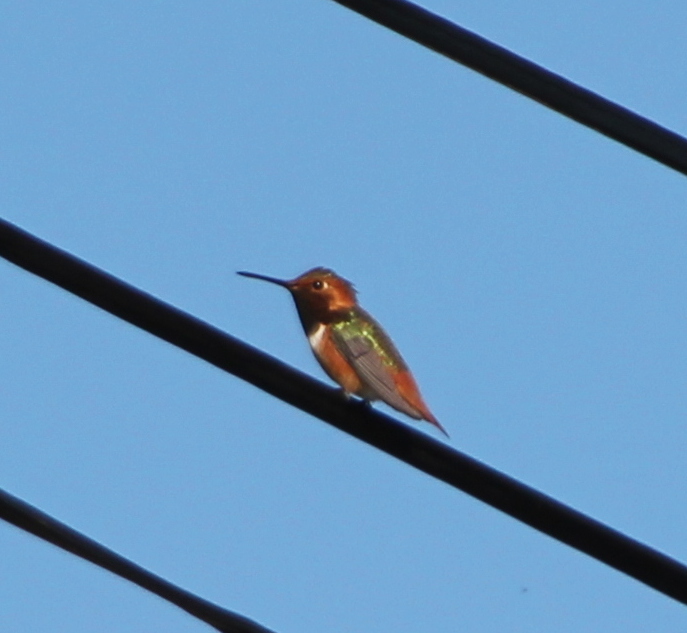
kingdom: Animalia
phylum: Chordata
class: Aves
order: Apodiformes
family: Trochilidae
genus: Selasphorus
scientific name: Selasphorus sasin
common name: Allen's hummingbird
